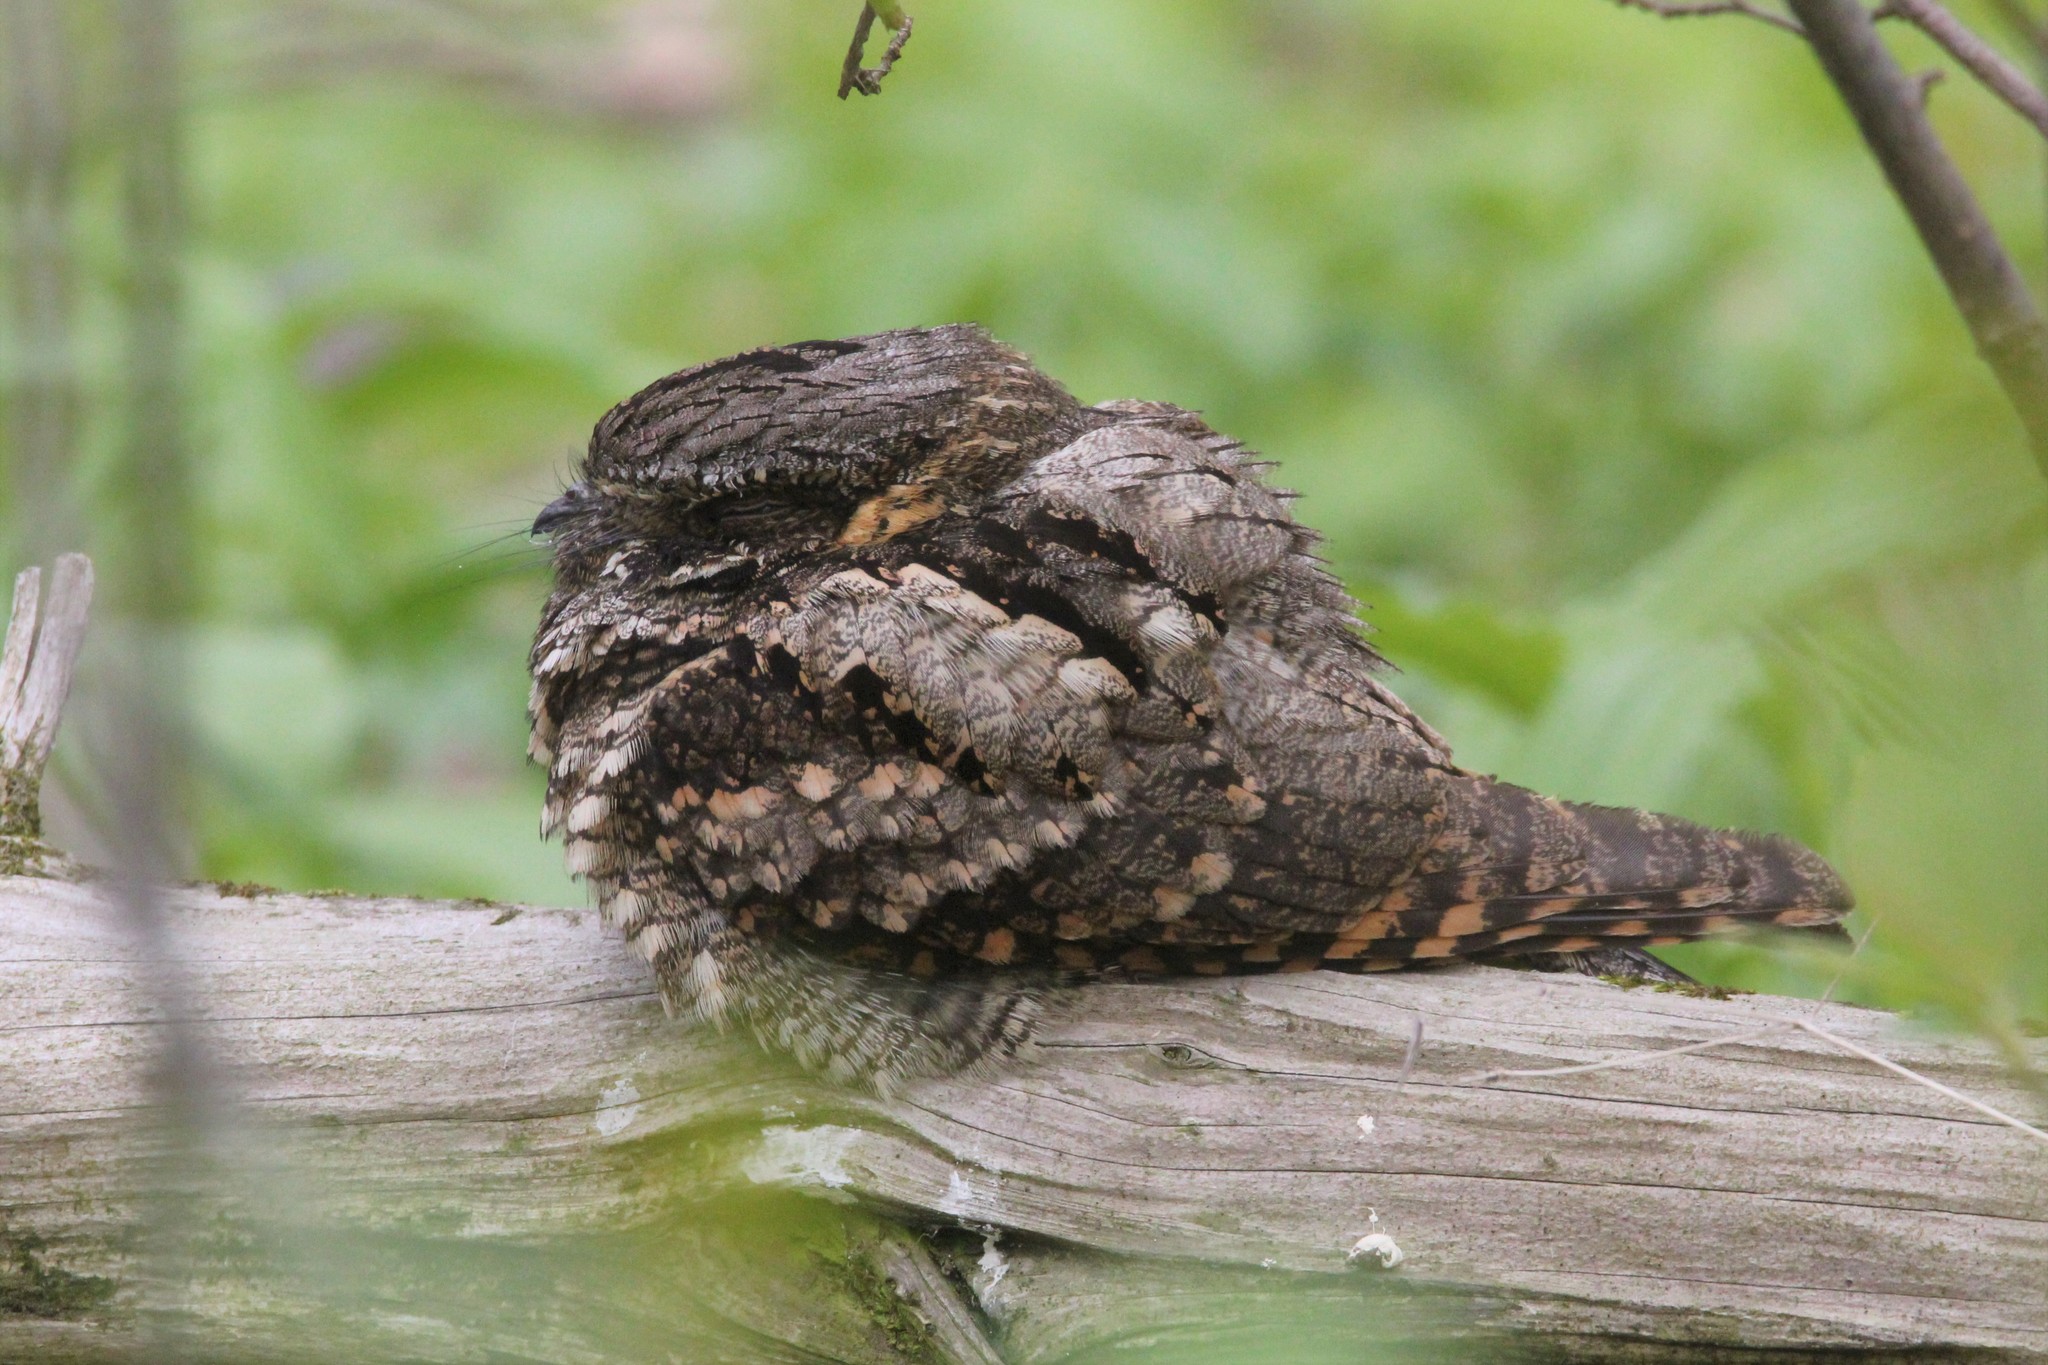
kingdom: Animalia
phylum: Chordata
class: Aves
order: Caprimulgiformes
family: Caprimulgidae
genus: Antrostomus
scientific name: Antrostomus vociferus
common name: Eastern whip-poor-will
